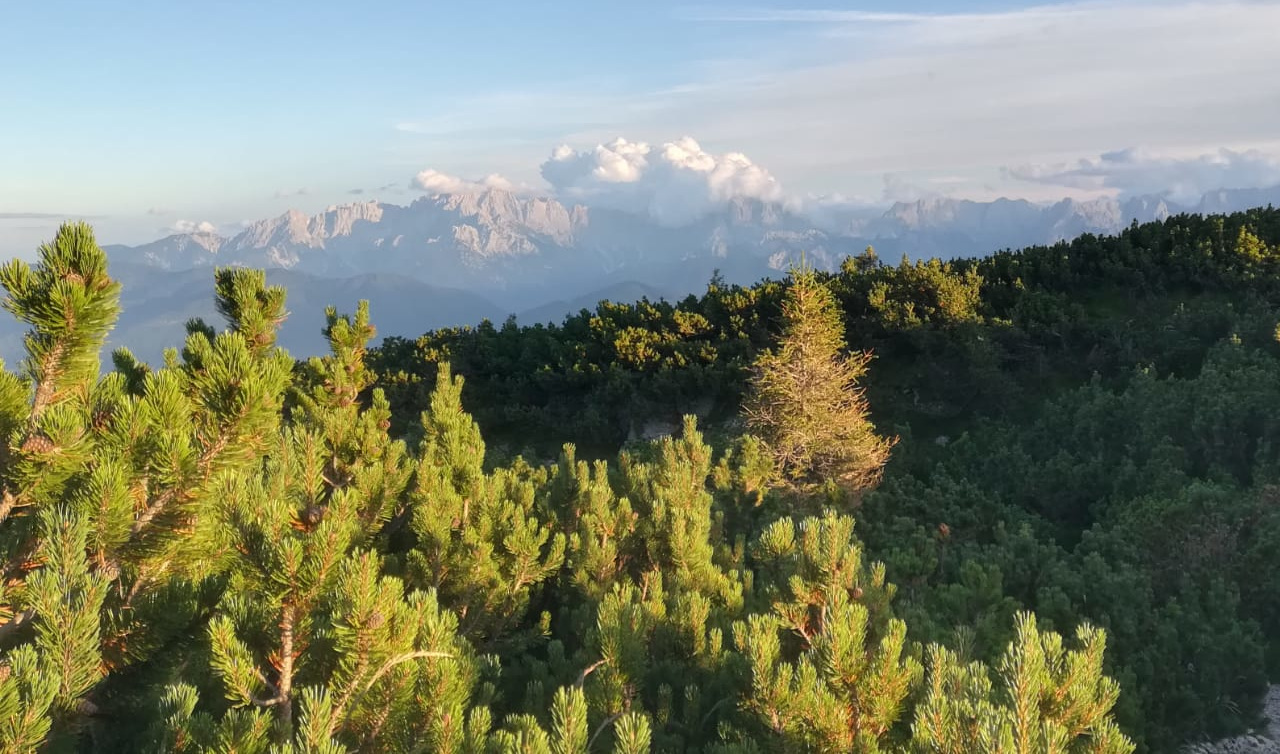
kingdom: Plantae
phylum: Tracheophyta
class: Pinopsida
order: Pinales
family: Pinaceae
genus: Pinus
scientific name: Pinus mugo
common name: Mugo pine
